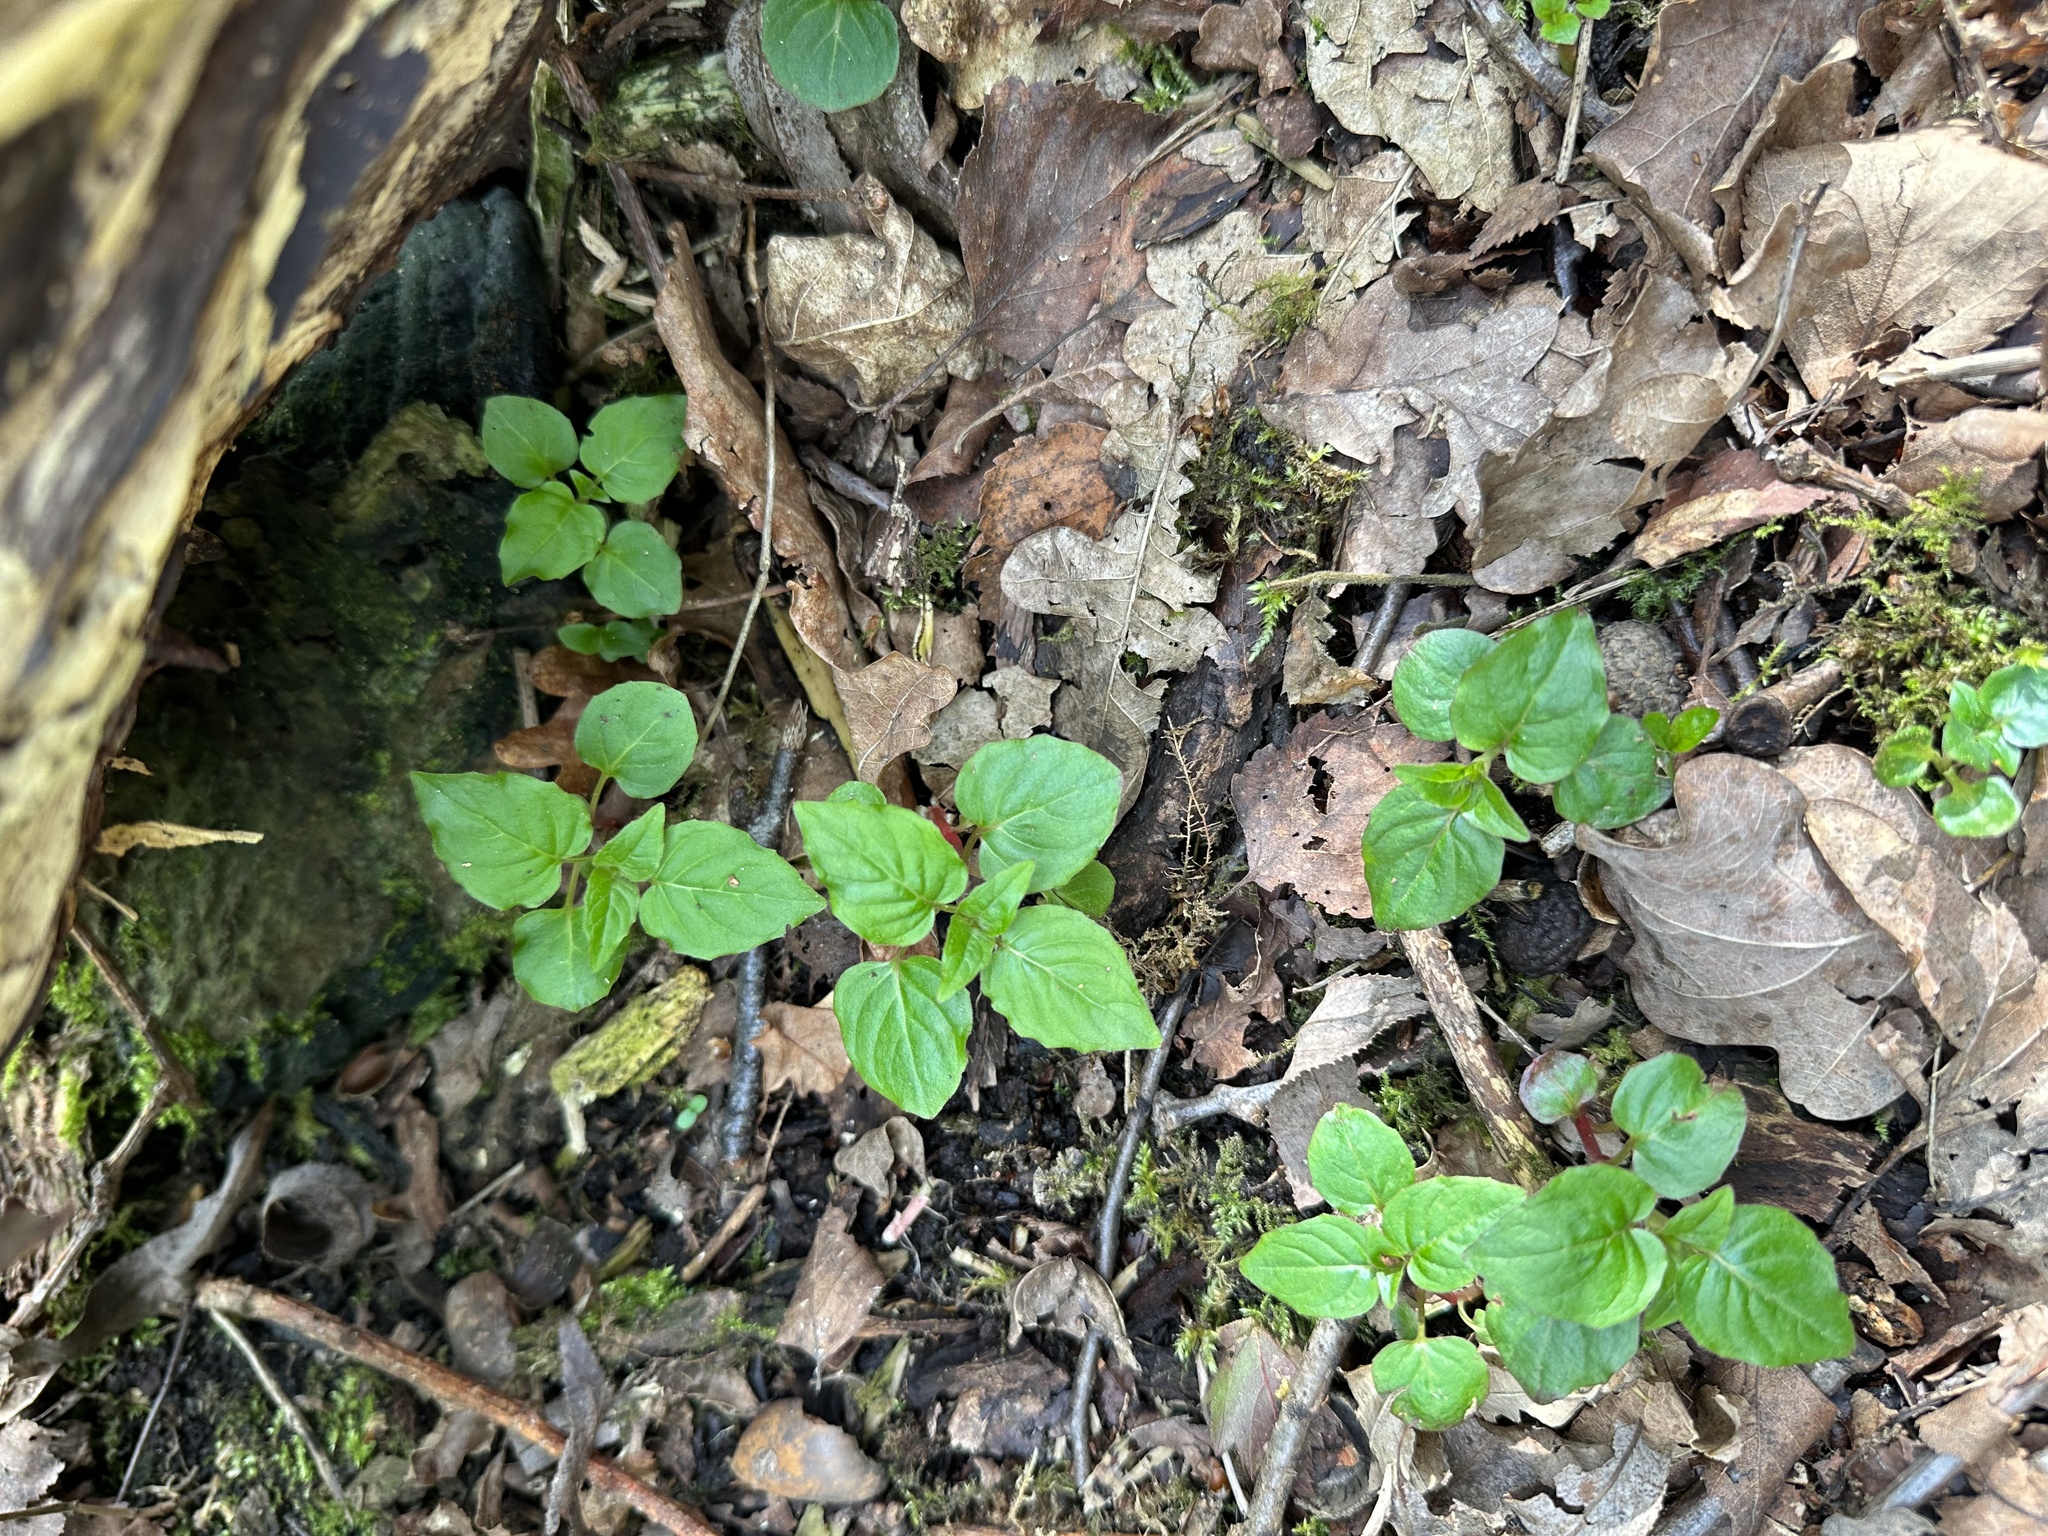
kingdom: Plantae
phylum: Tracheophyta
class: Magnoliopsida
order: Myrtales
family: Onagraceae
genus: Circaea
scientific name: Circaea lutetiana
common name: Enchanter's-nightshade
